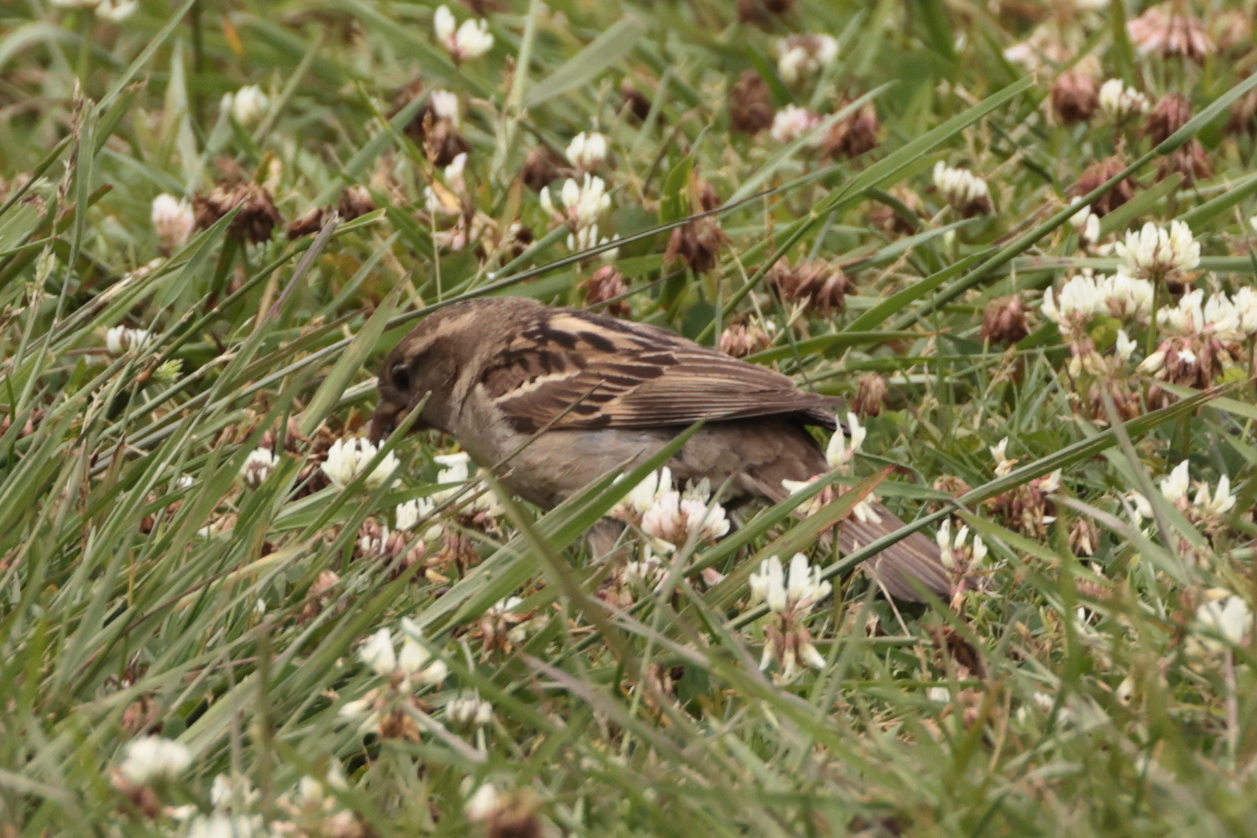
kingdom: Animalia
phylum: Chordata
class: Aves
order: Passeriformes
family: Passeridae
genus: Passer
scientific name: Passer domesticus
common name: House sparrow
